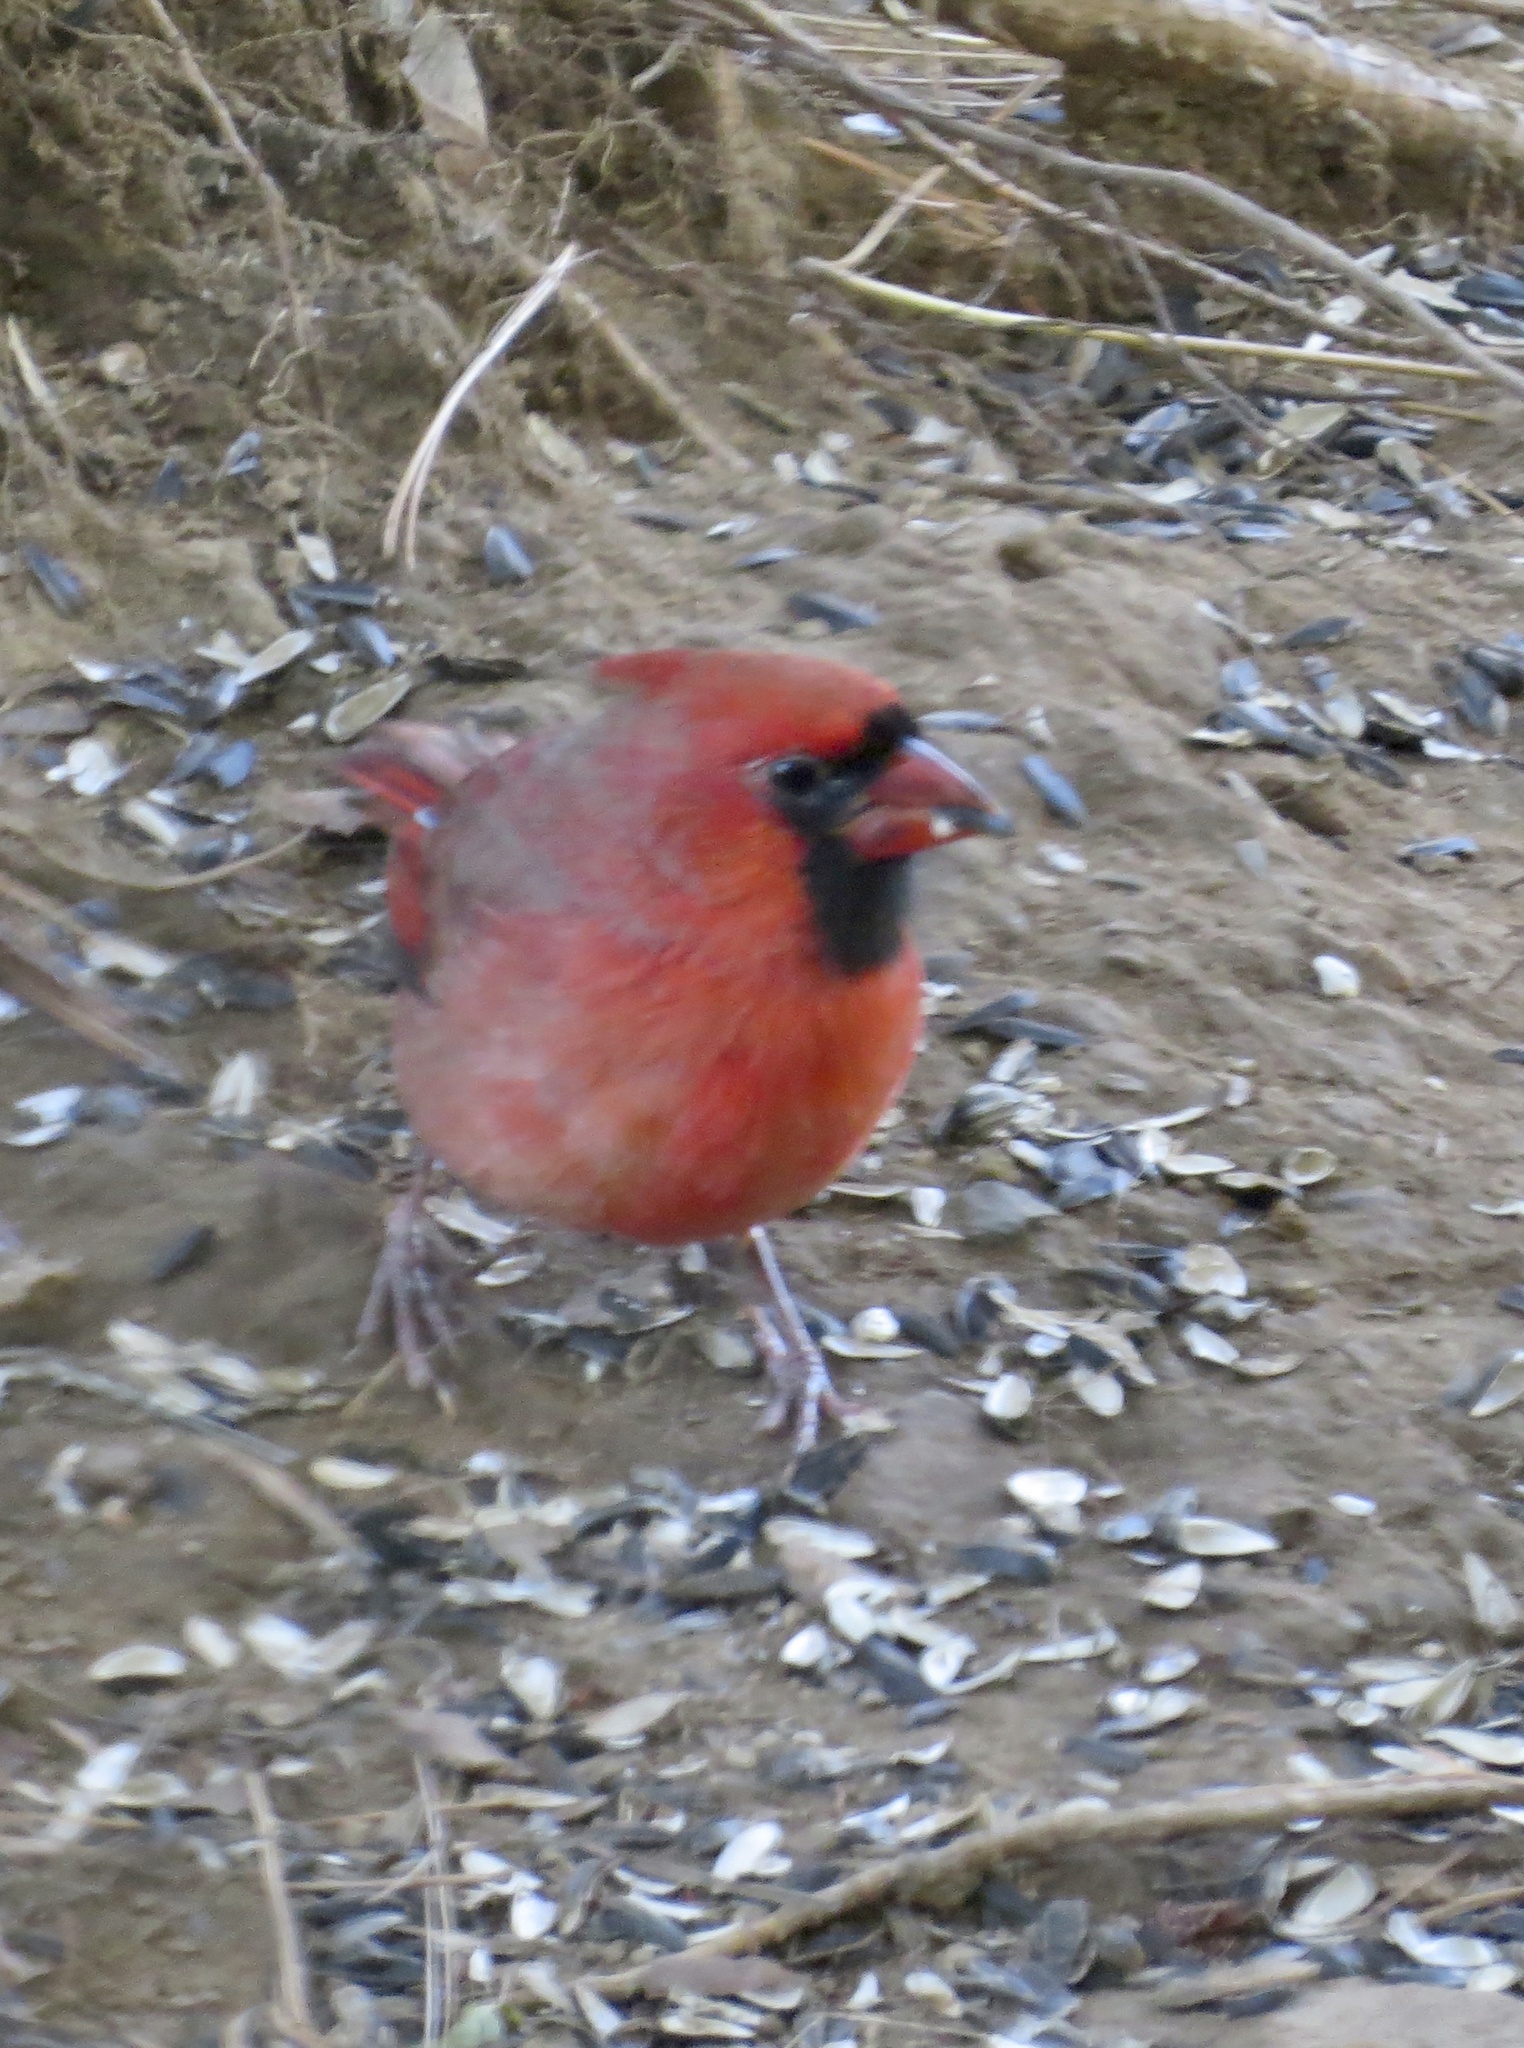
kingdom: Animalia
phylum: Chordata
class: Aves
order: Passeriformes
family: Cardinalidae
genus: Cardinalis
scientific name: Cardinalis cardinalis
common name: Northern cardinal
